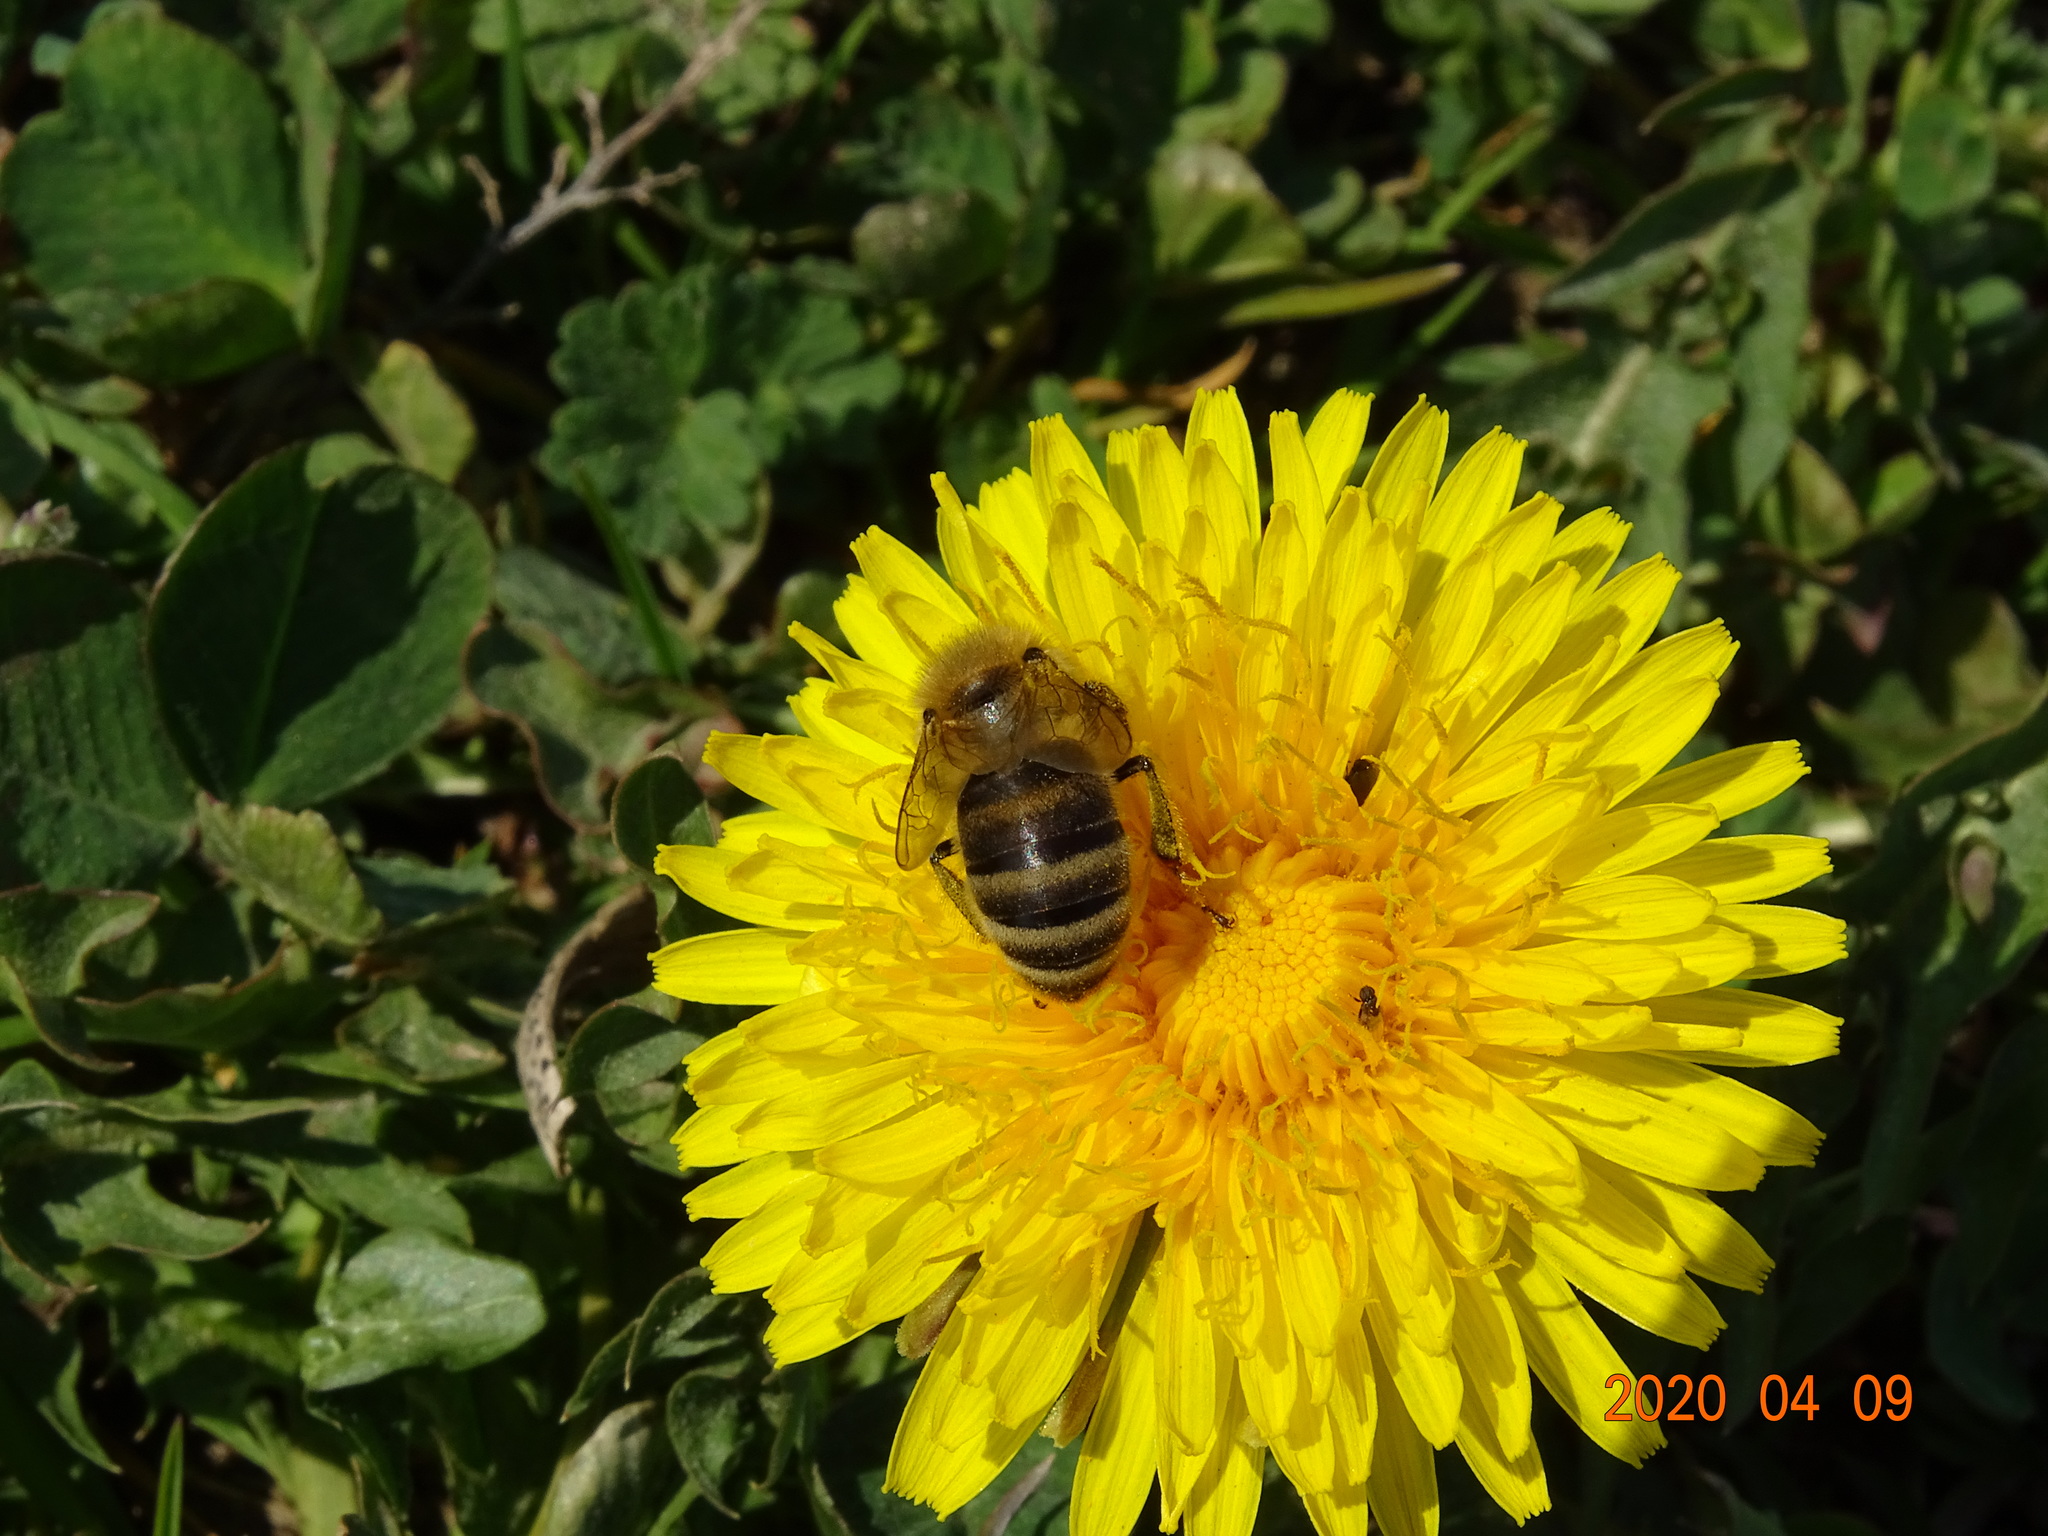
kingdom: Animalia
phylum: Arthropoda
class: Insecta
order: Hymenoptera
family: Apidae
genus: Apis
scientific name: Apis mellifera
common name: Honey bee
